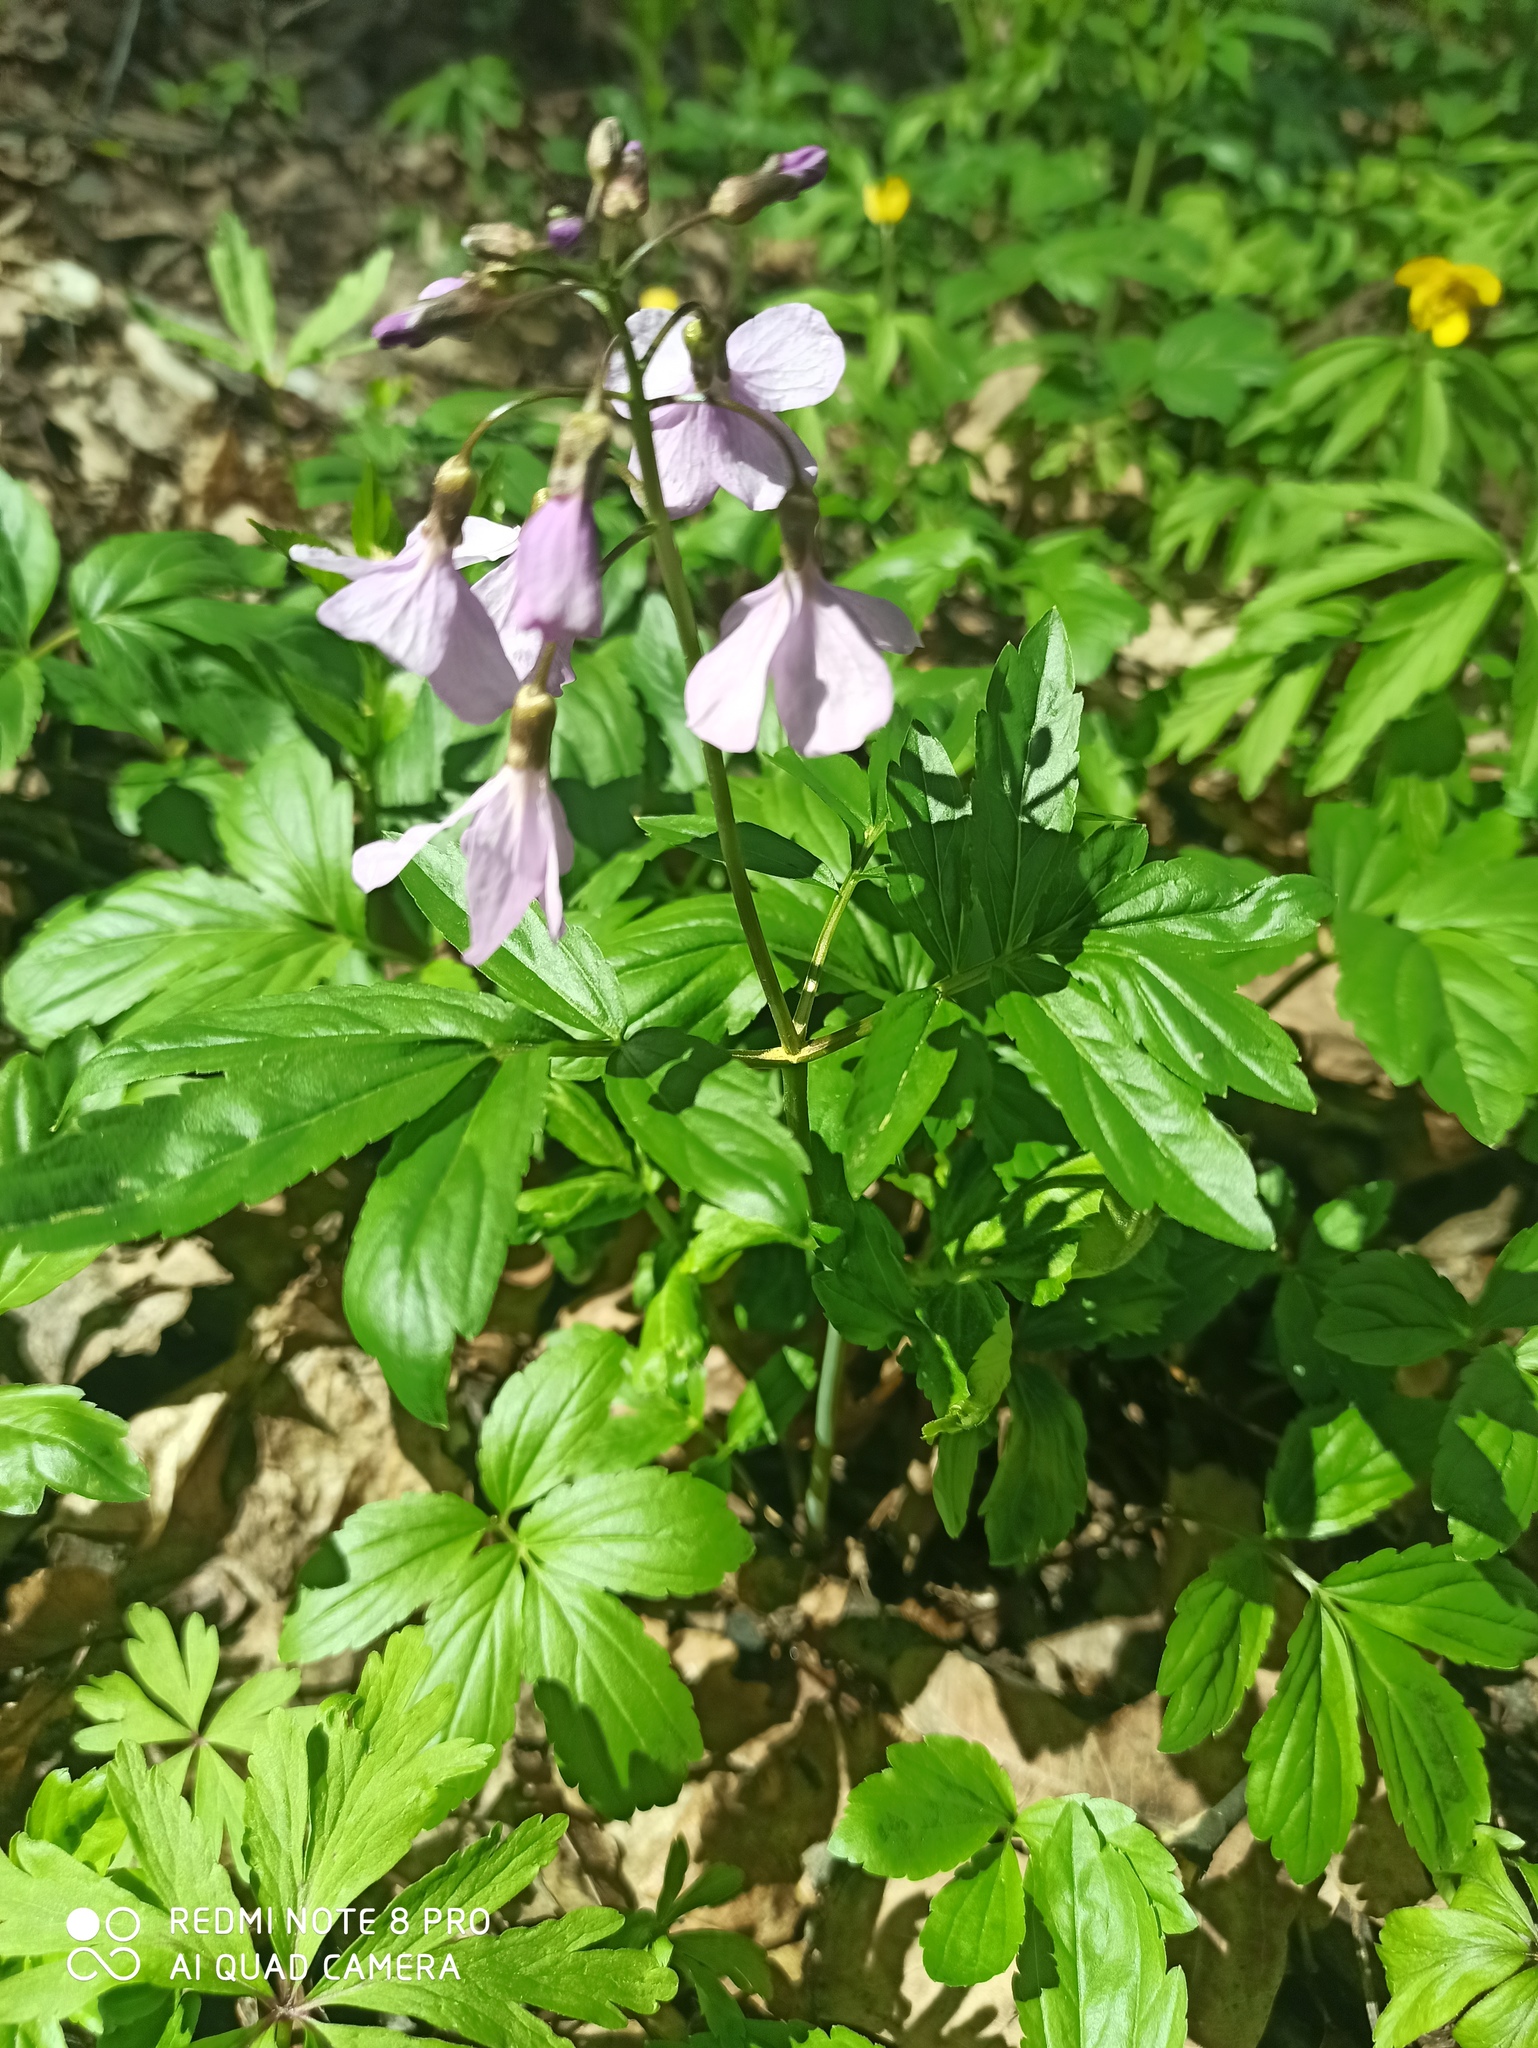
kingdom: Plantae
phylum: Tracheophyta
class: Magnoliopsida
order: Brassicales
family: Brassicaceae
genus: Cardamine
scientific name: Cardamine quinquefolia
